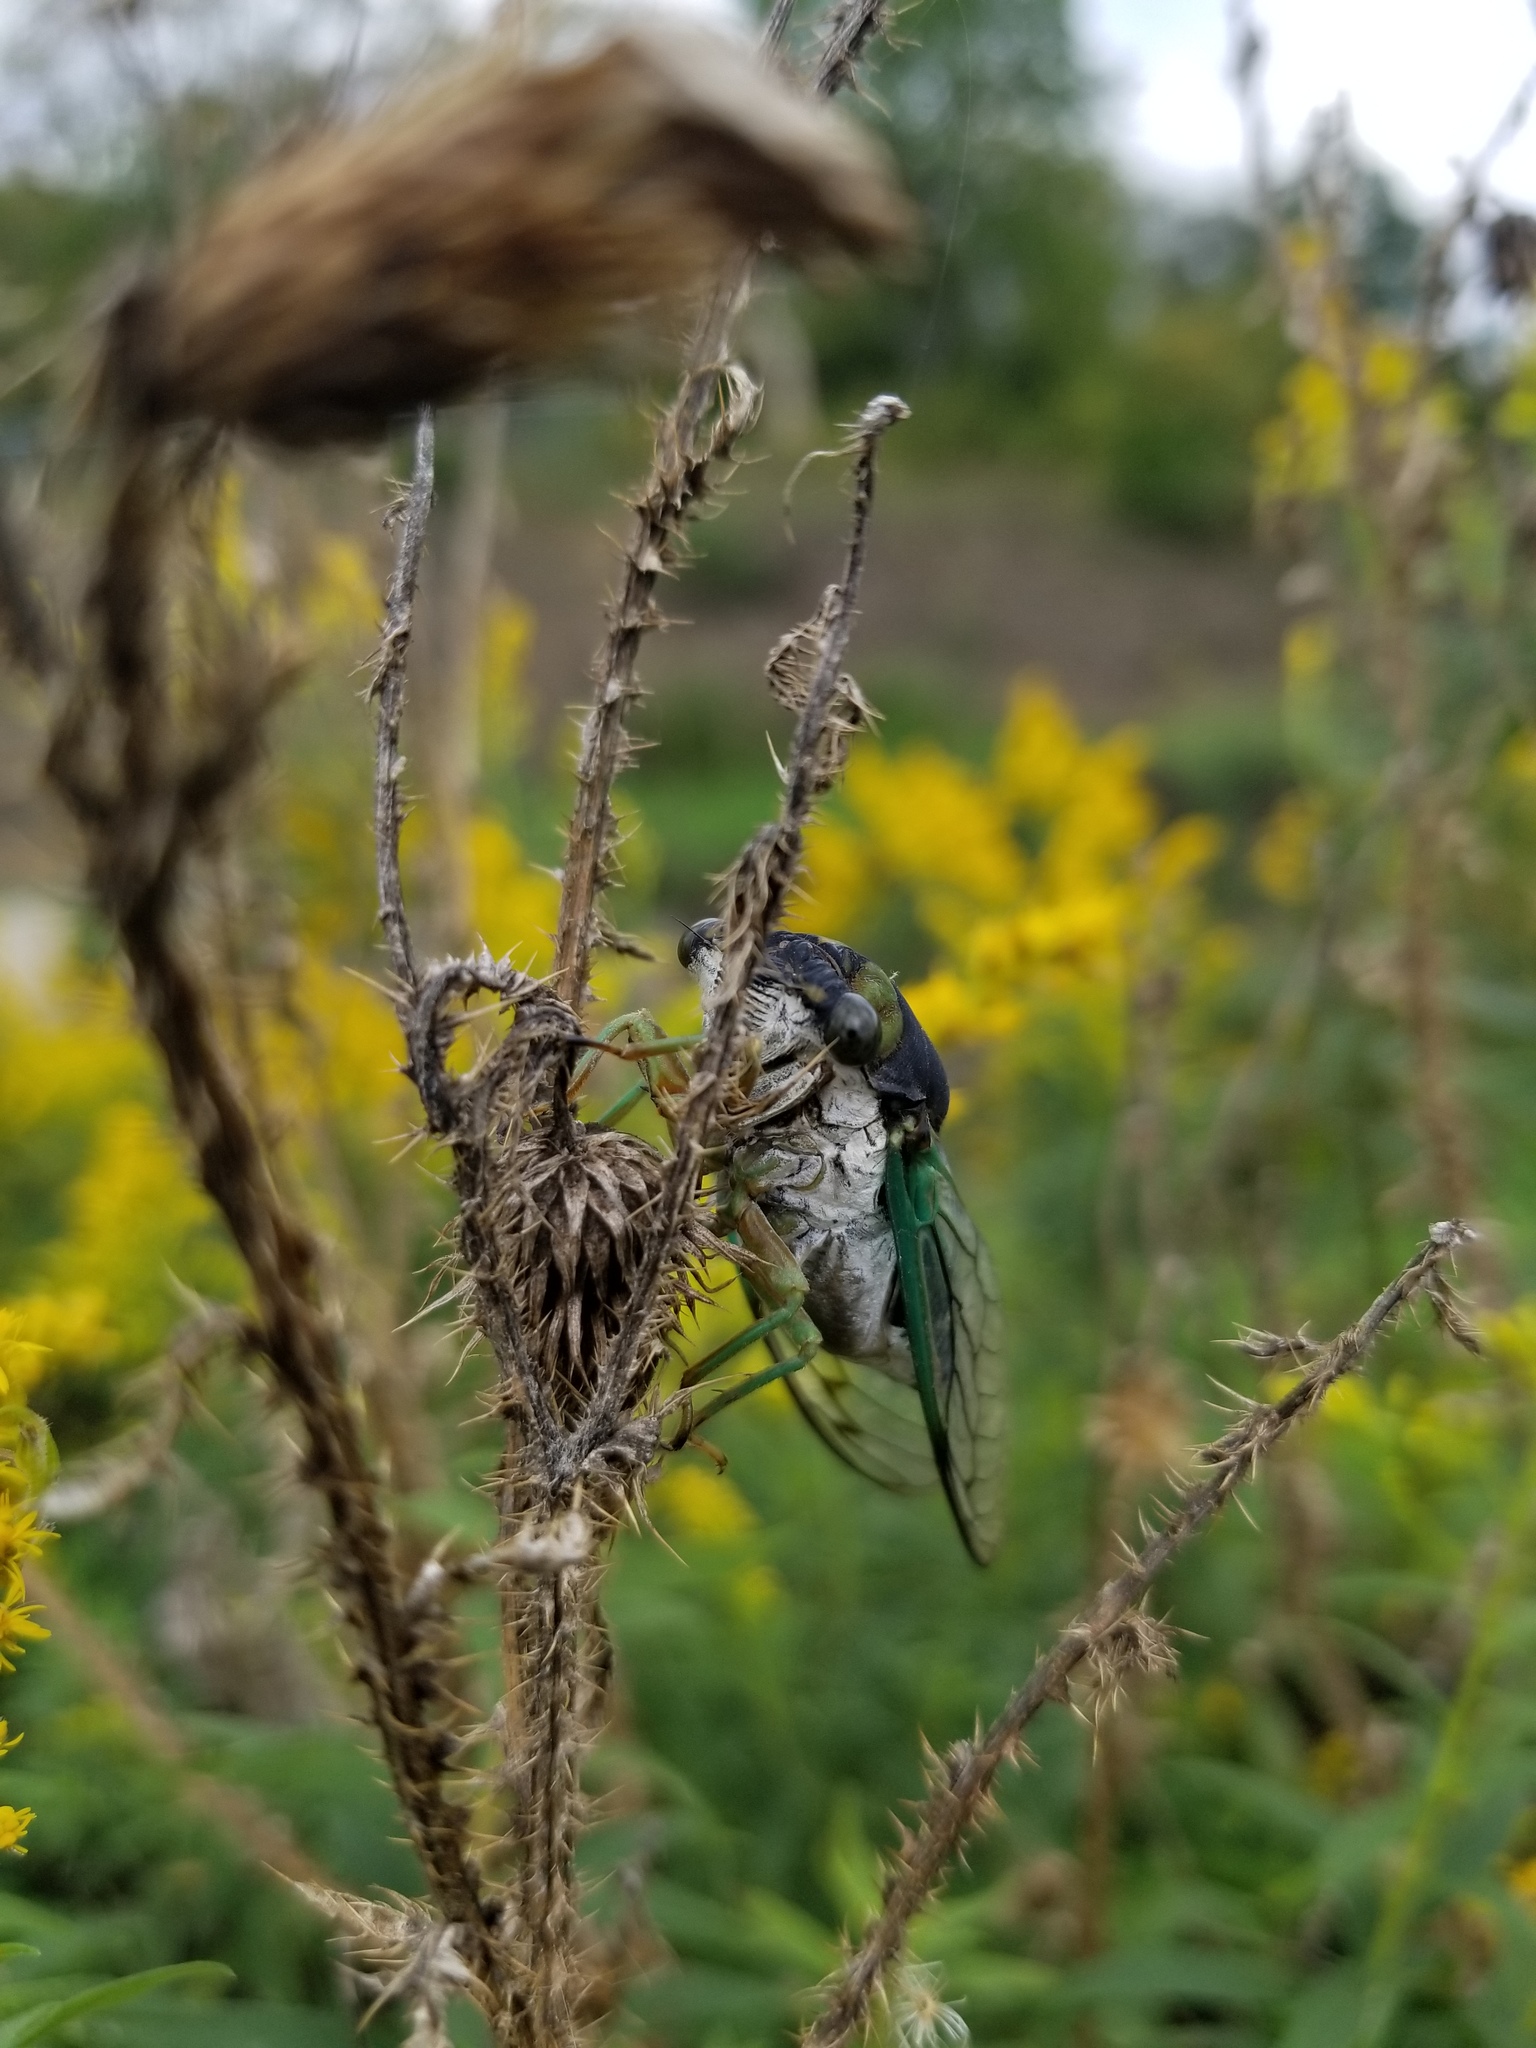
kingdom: Animalia
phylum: Arthropoda
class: Insecta
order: Hemiptera
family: Cicadidae
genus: Neotibicen
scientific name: Neotibicen tibicen
